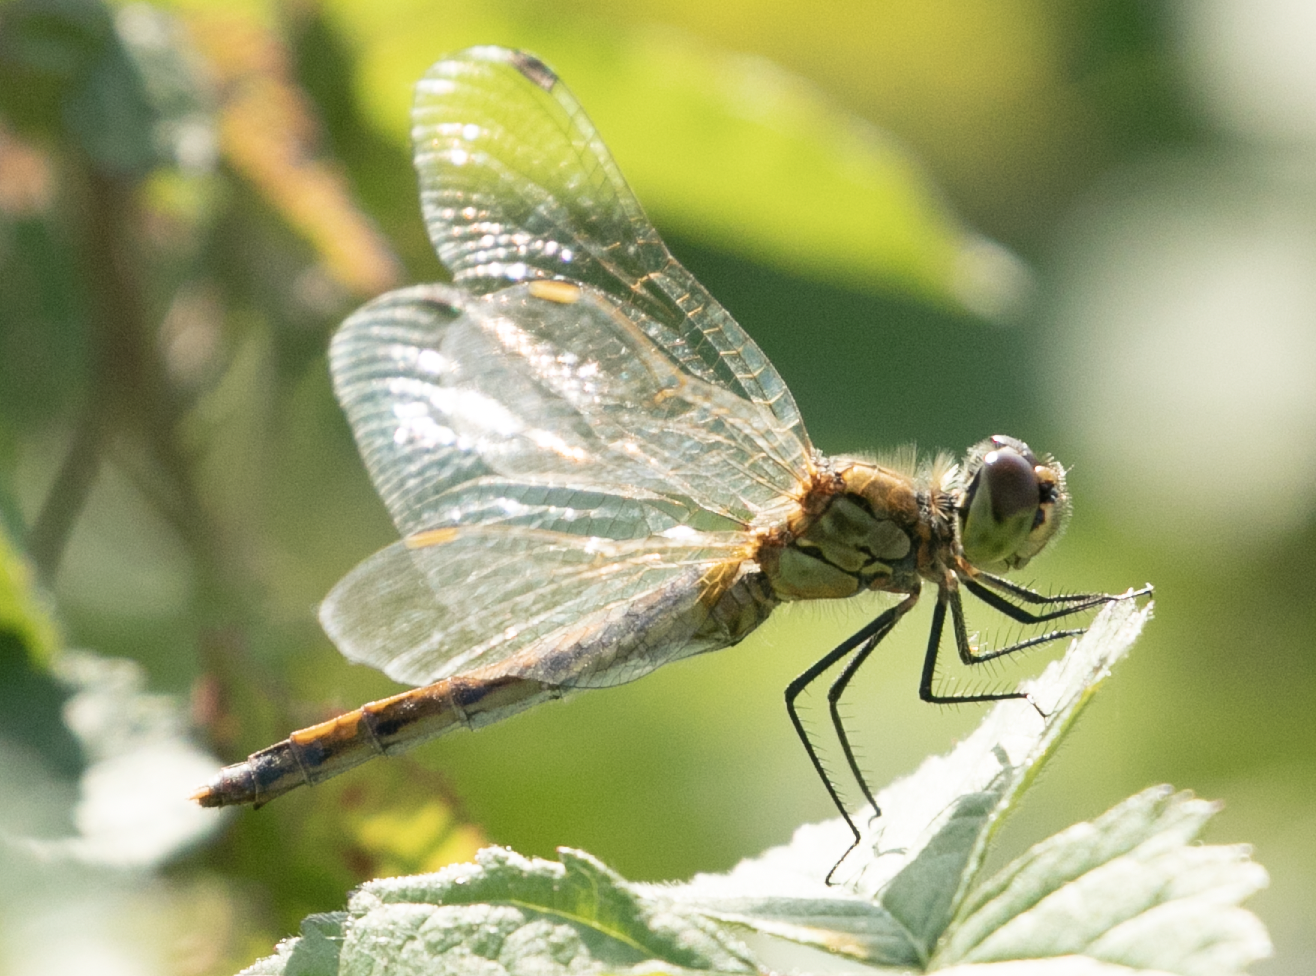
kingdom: Animalia
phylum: Arthropoda
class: Insecta
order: Odonata
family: Libellulidae
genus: Sympetrum
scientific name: Sympetrum depressiusculum
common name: Spotted darter
